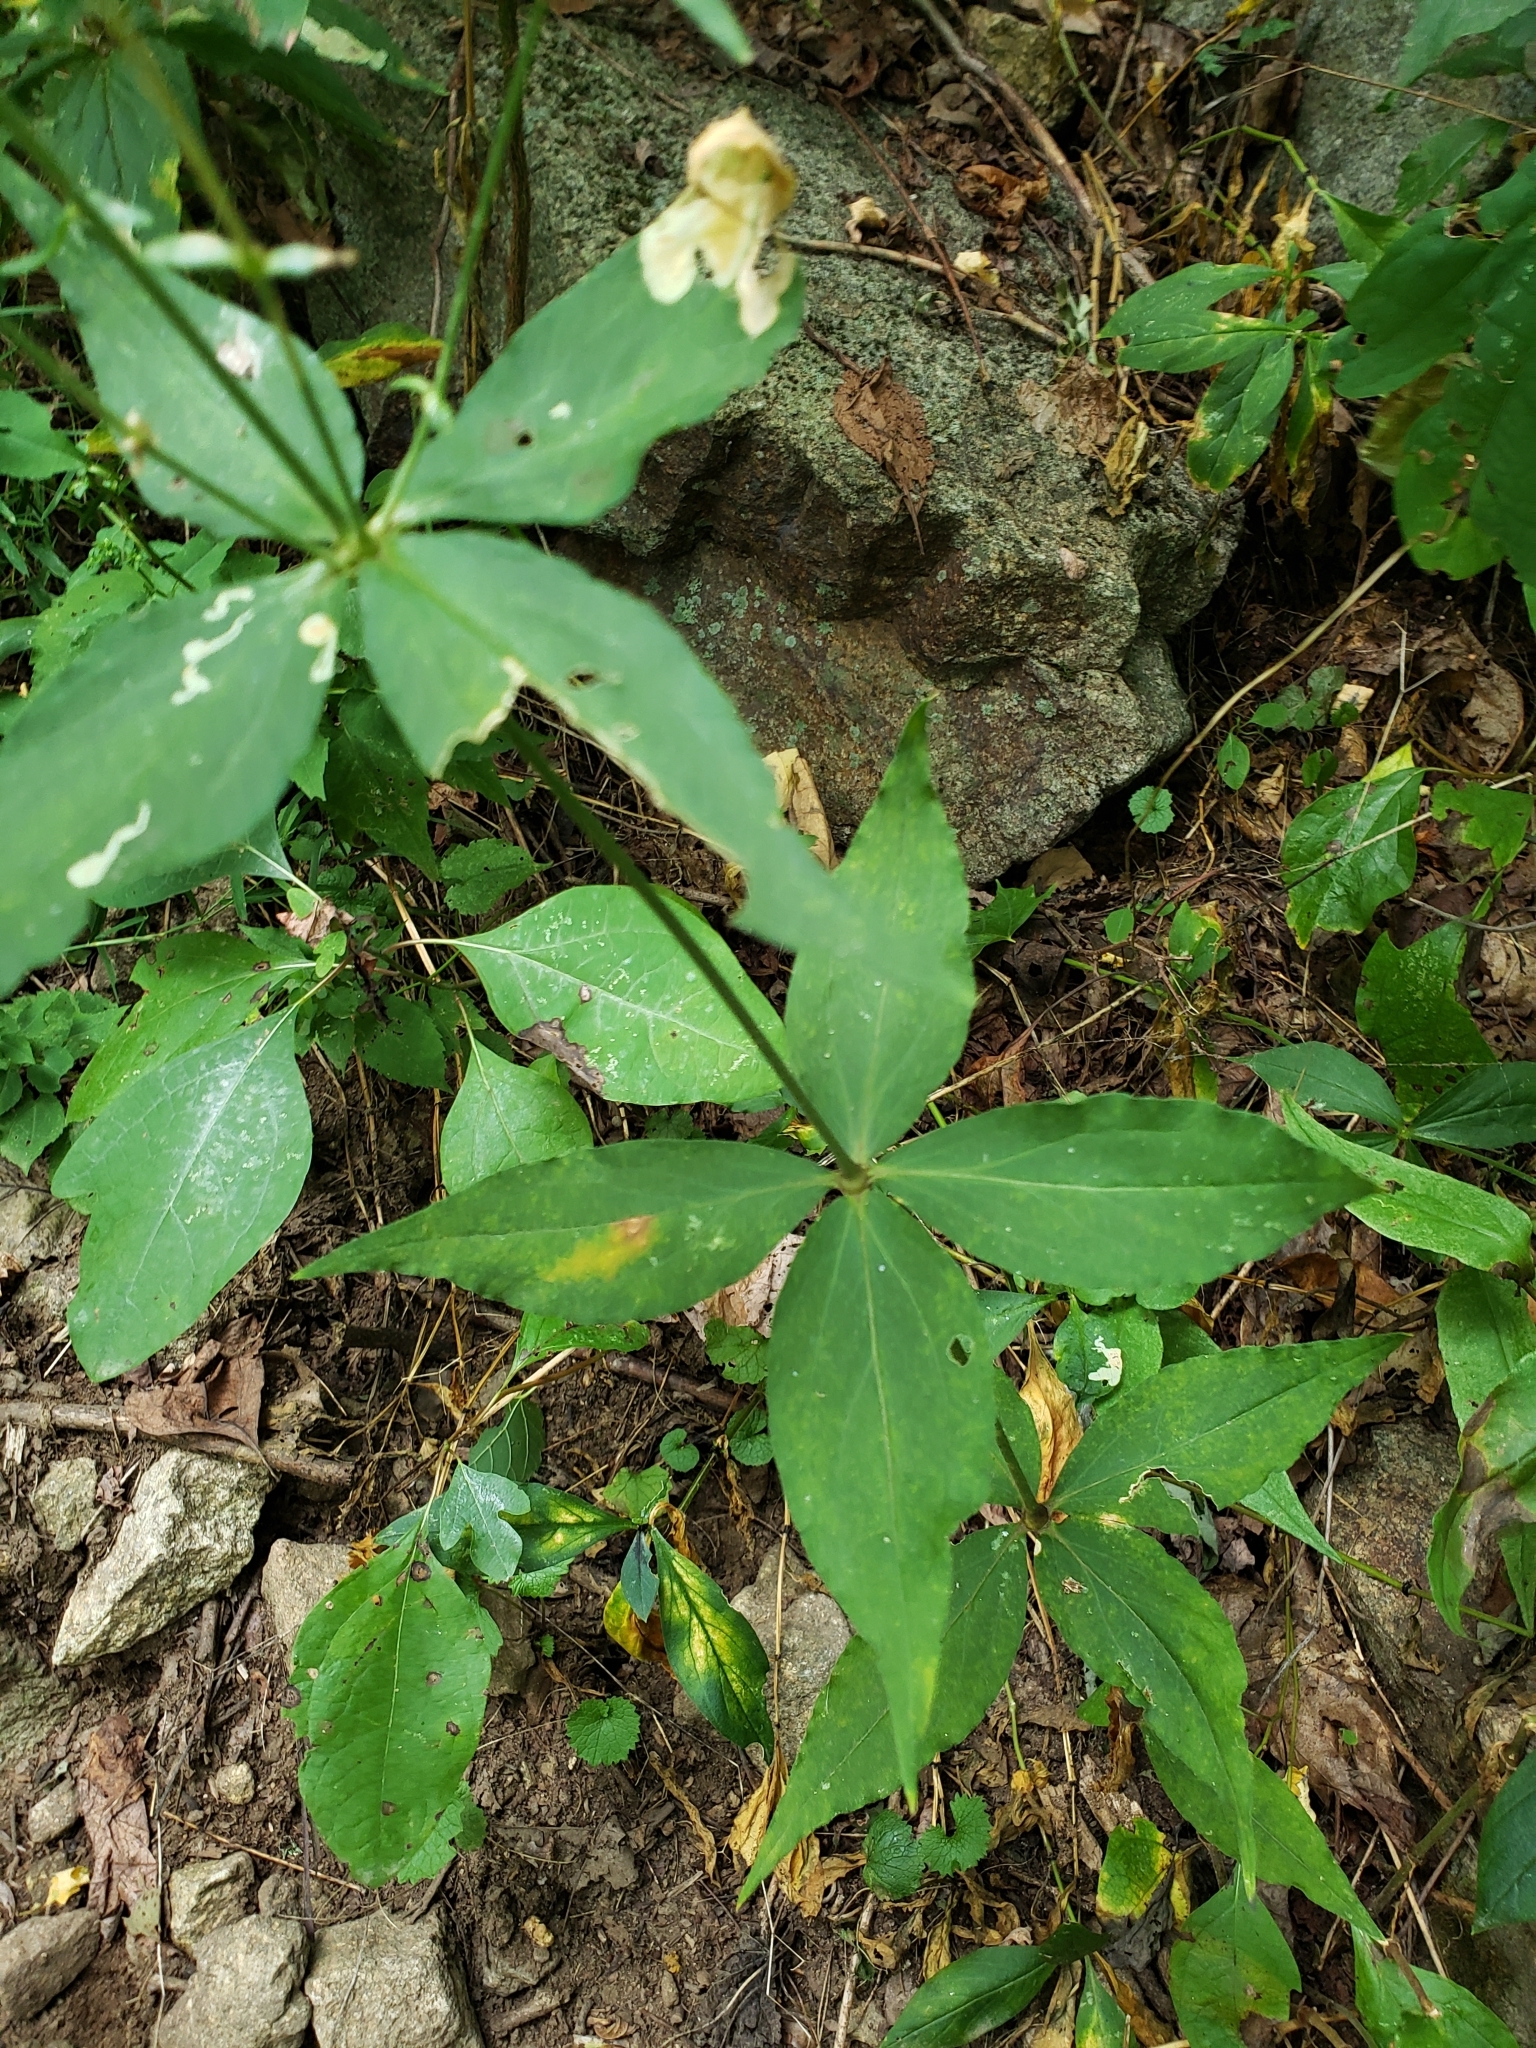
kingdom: Plantae
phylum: Tracheophyta
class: Magnoliopsida
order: Caryophyllales
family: Caryophyllaceae
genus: Silene
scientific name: Silene stellata
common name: Starry campion
